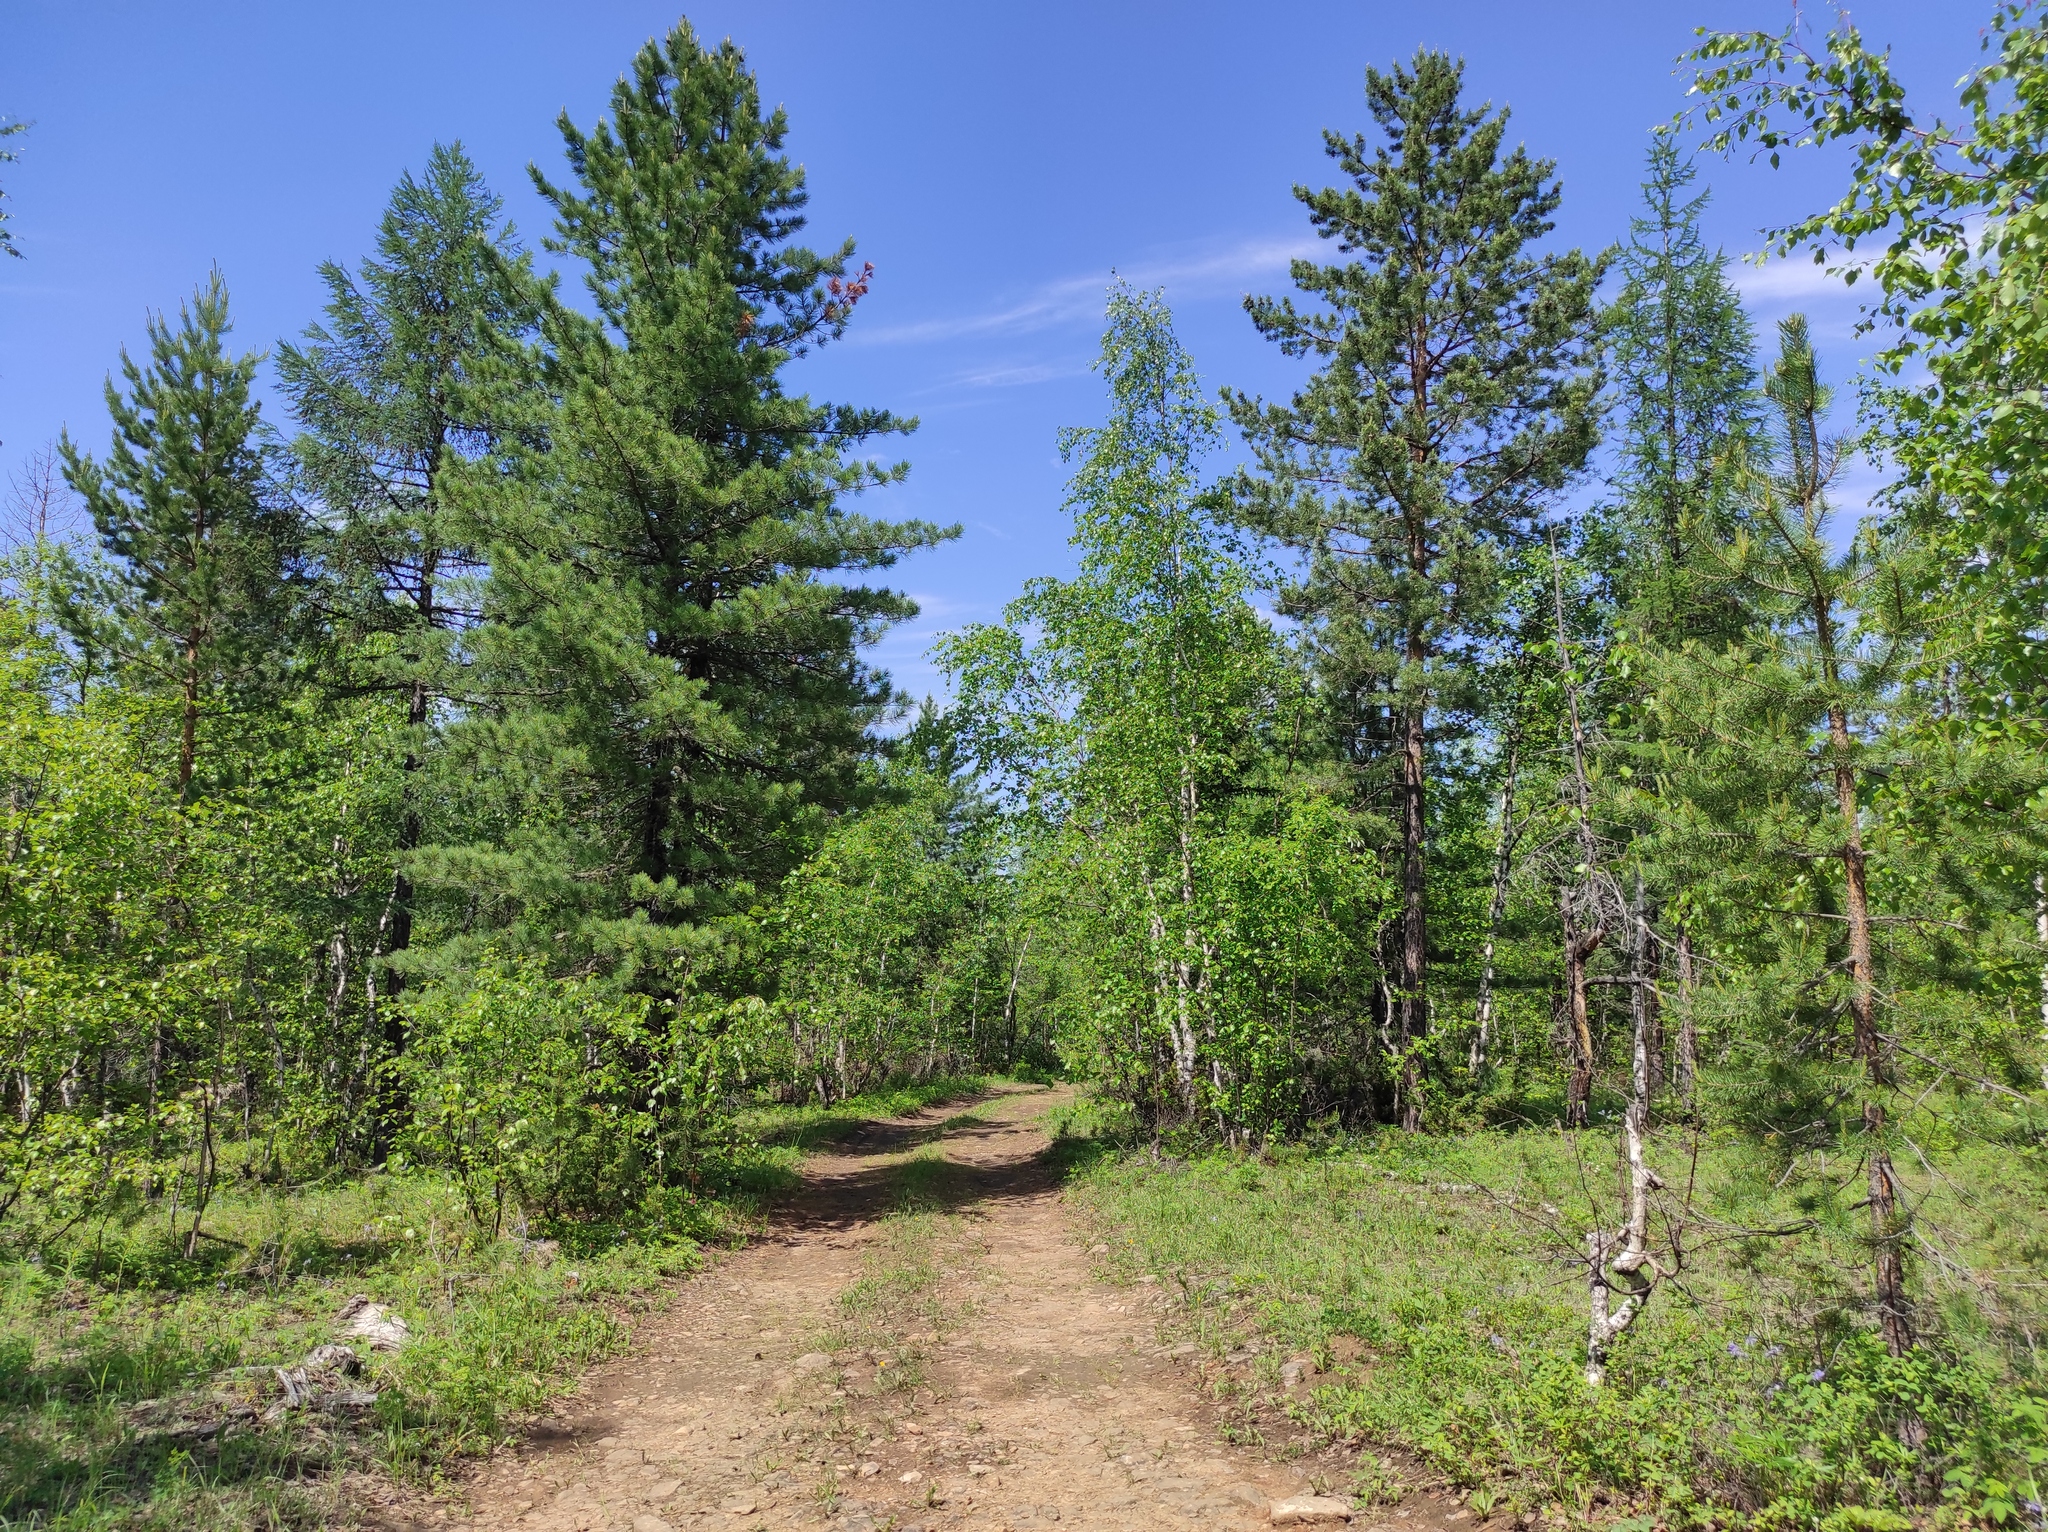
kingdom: Plantae
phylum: Tracheophyta
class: Pinopsida
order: Pinales
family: Pinaceae
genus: Pinus
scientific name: Pinus sylvestris
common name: Scots pine
